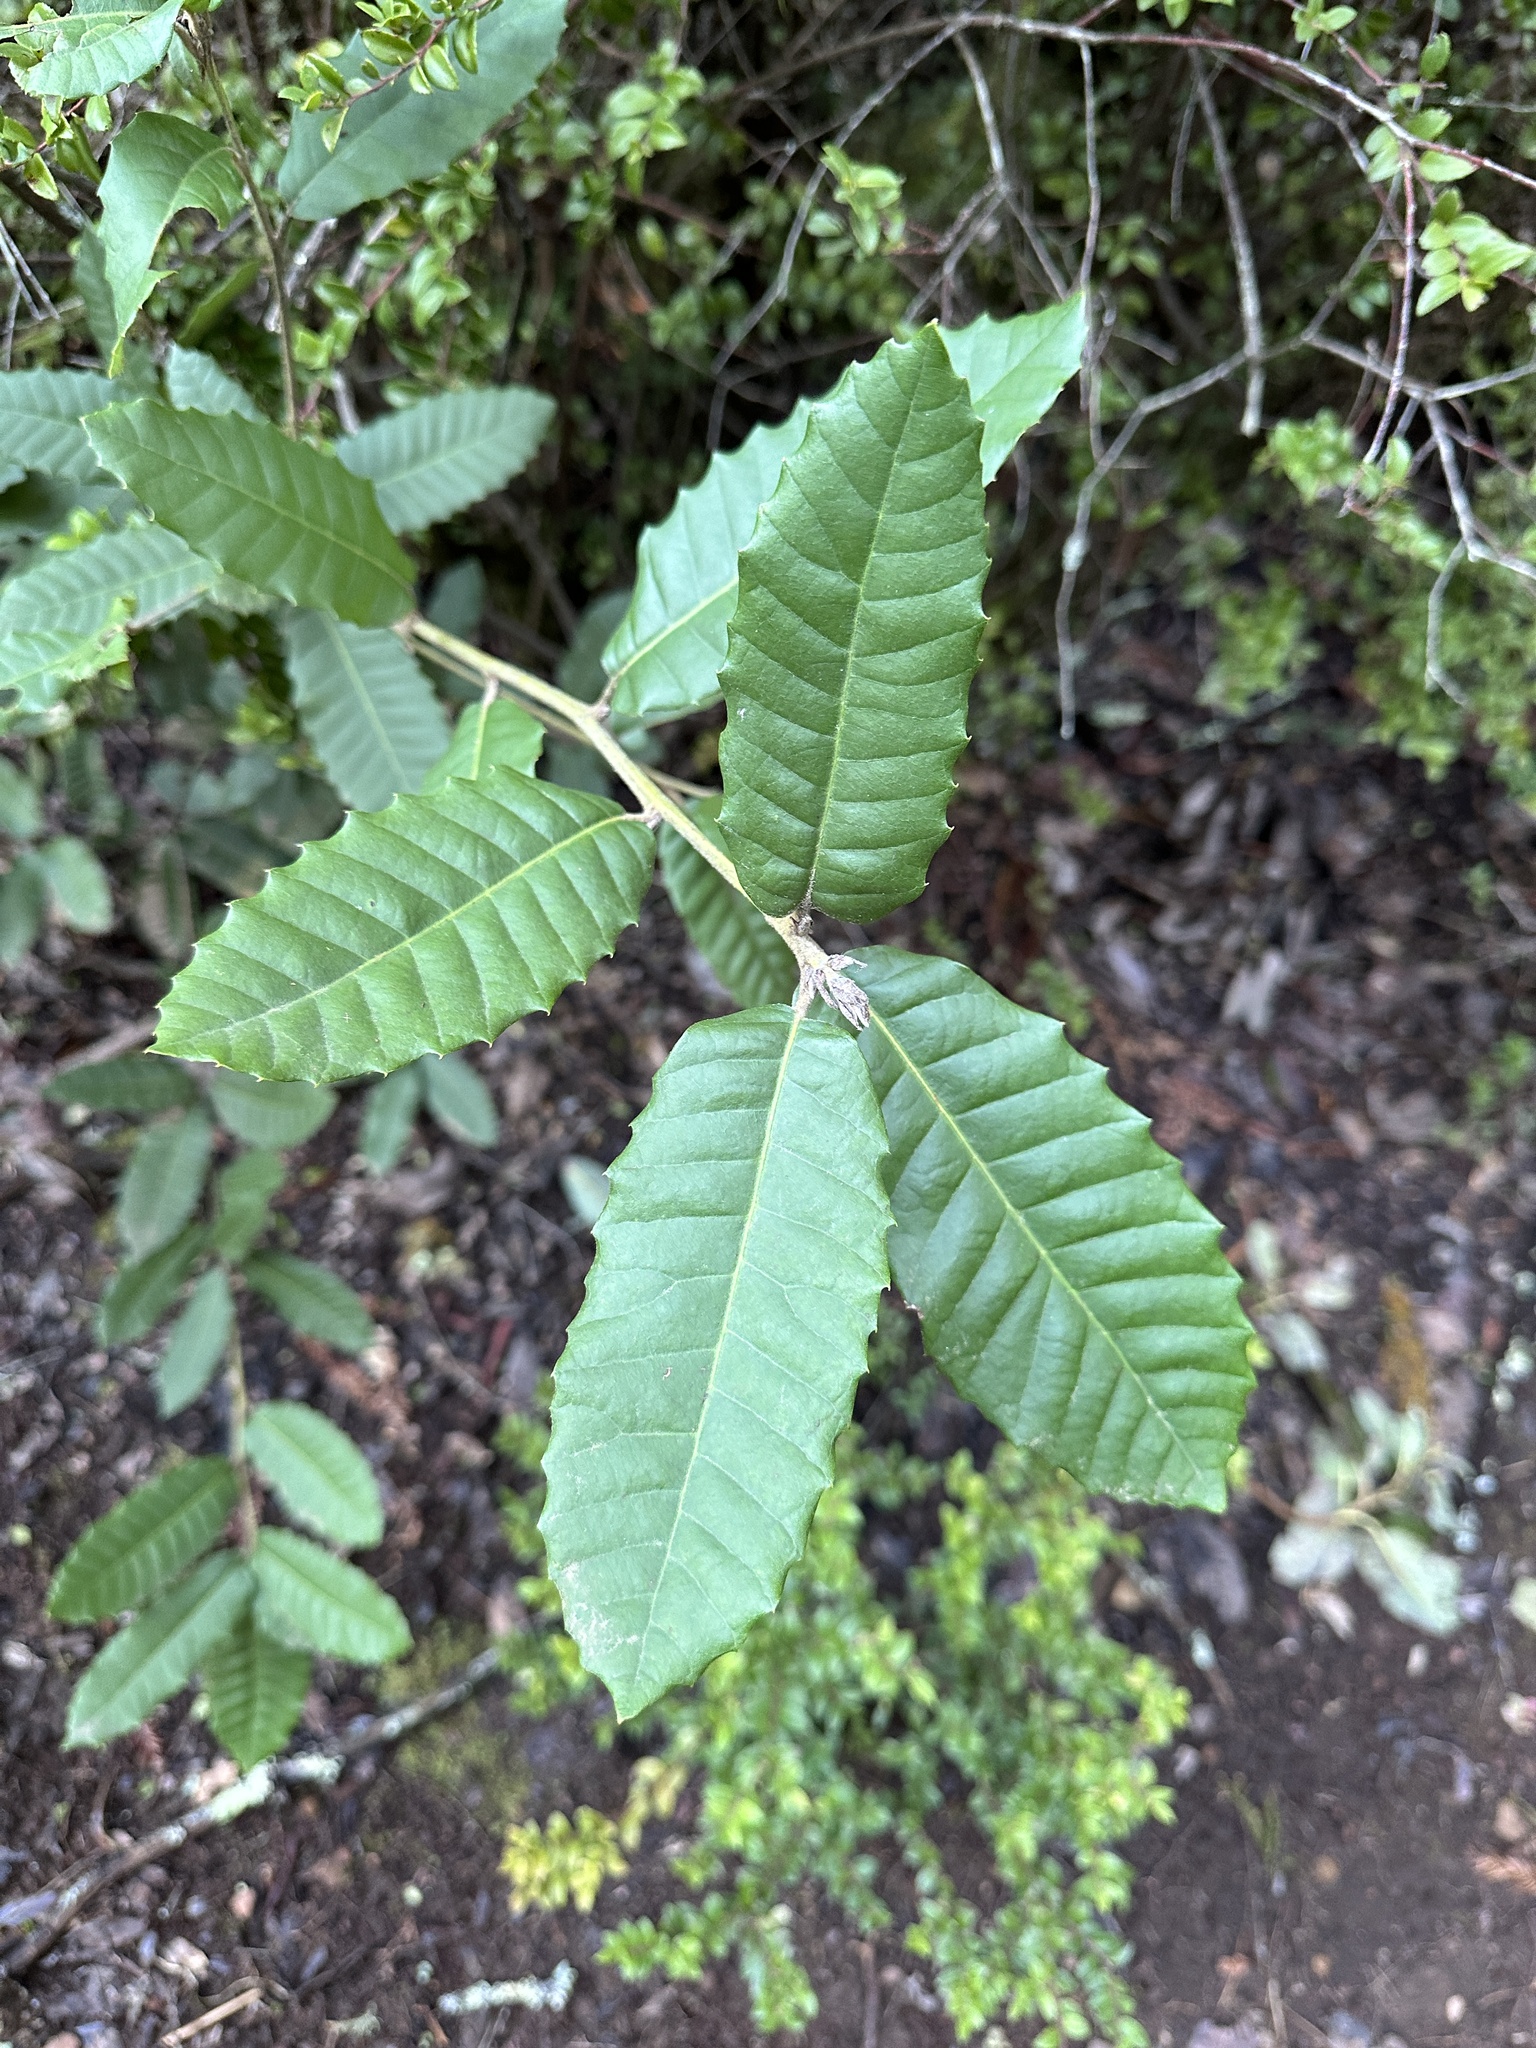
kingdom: Plantae
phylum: Tracheophyta
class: Magnoliopsida
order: Fagales
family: Fagaceae
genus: Notholithocarpus
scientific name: Notholithocarpus densiflorus
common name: Tan bark oak
